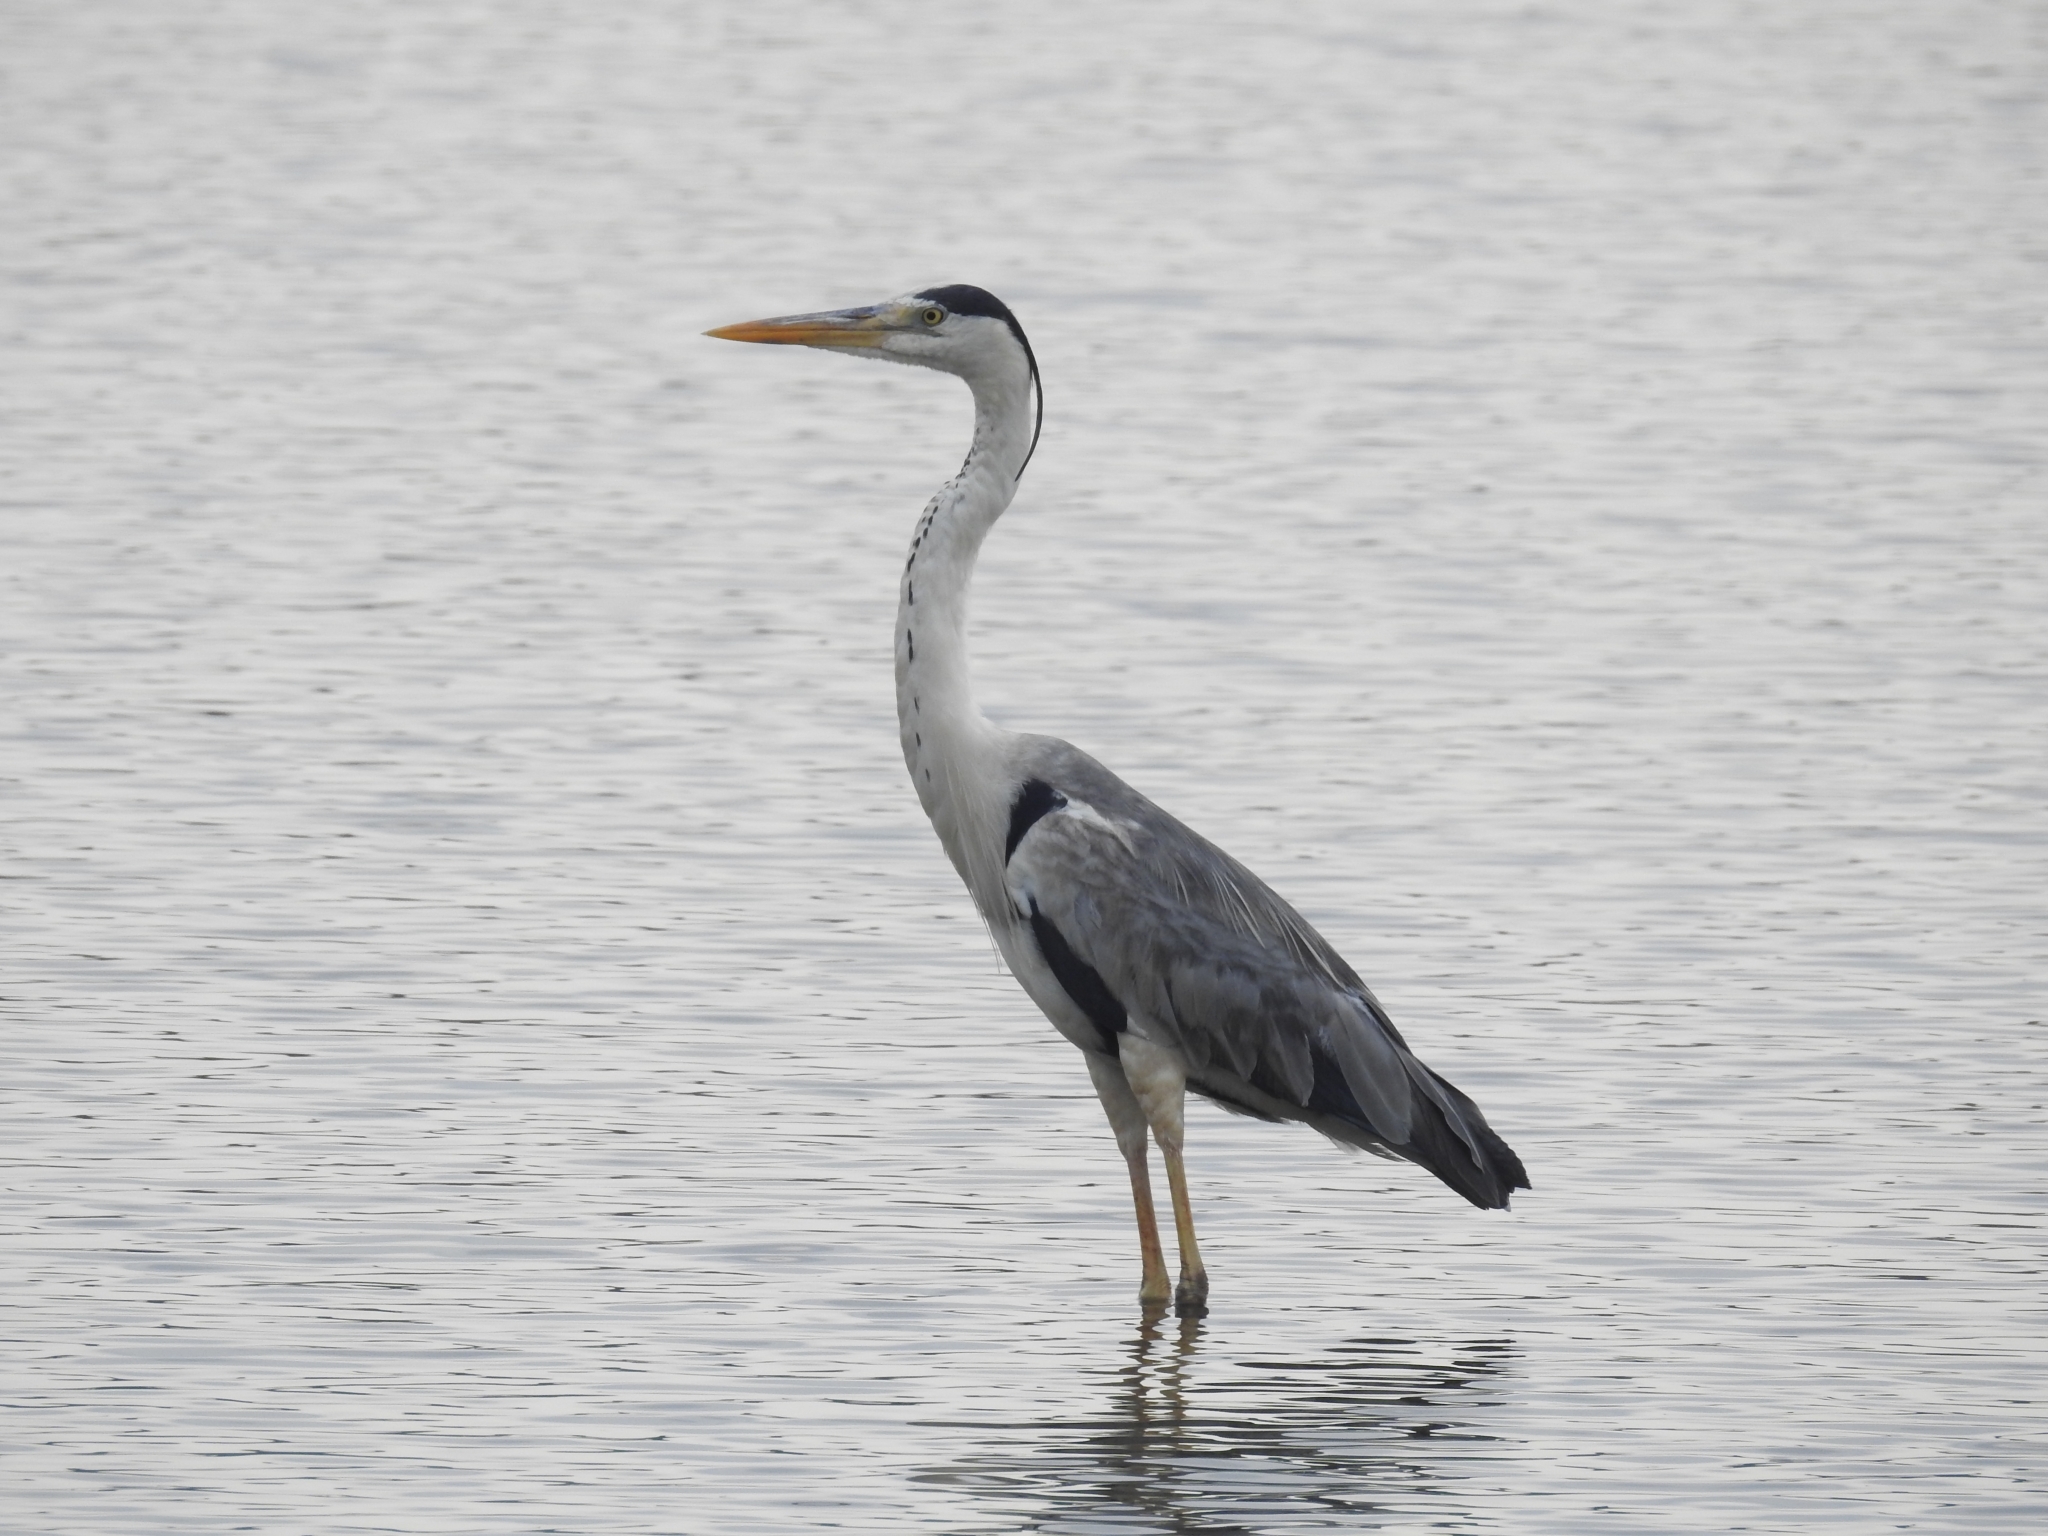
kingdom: Animalia
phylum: Chordata
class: Aves
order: Pelecaniformes
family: Ardeidae
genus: Ardea
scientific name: Ardea cinerea
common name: Grey heron
